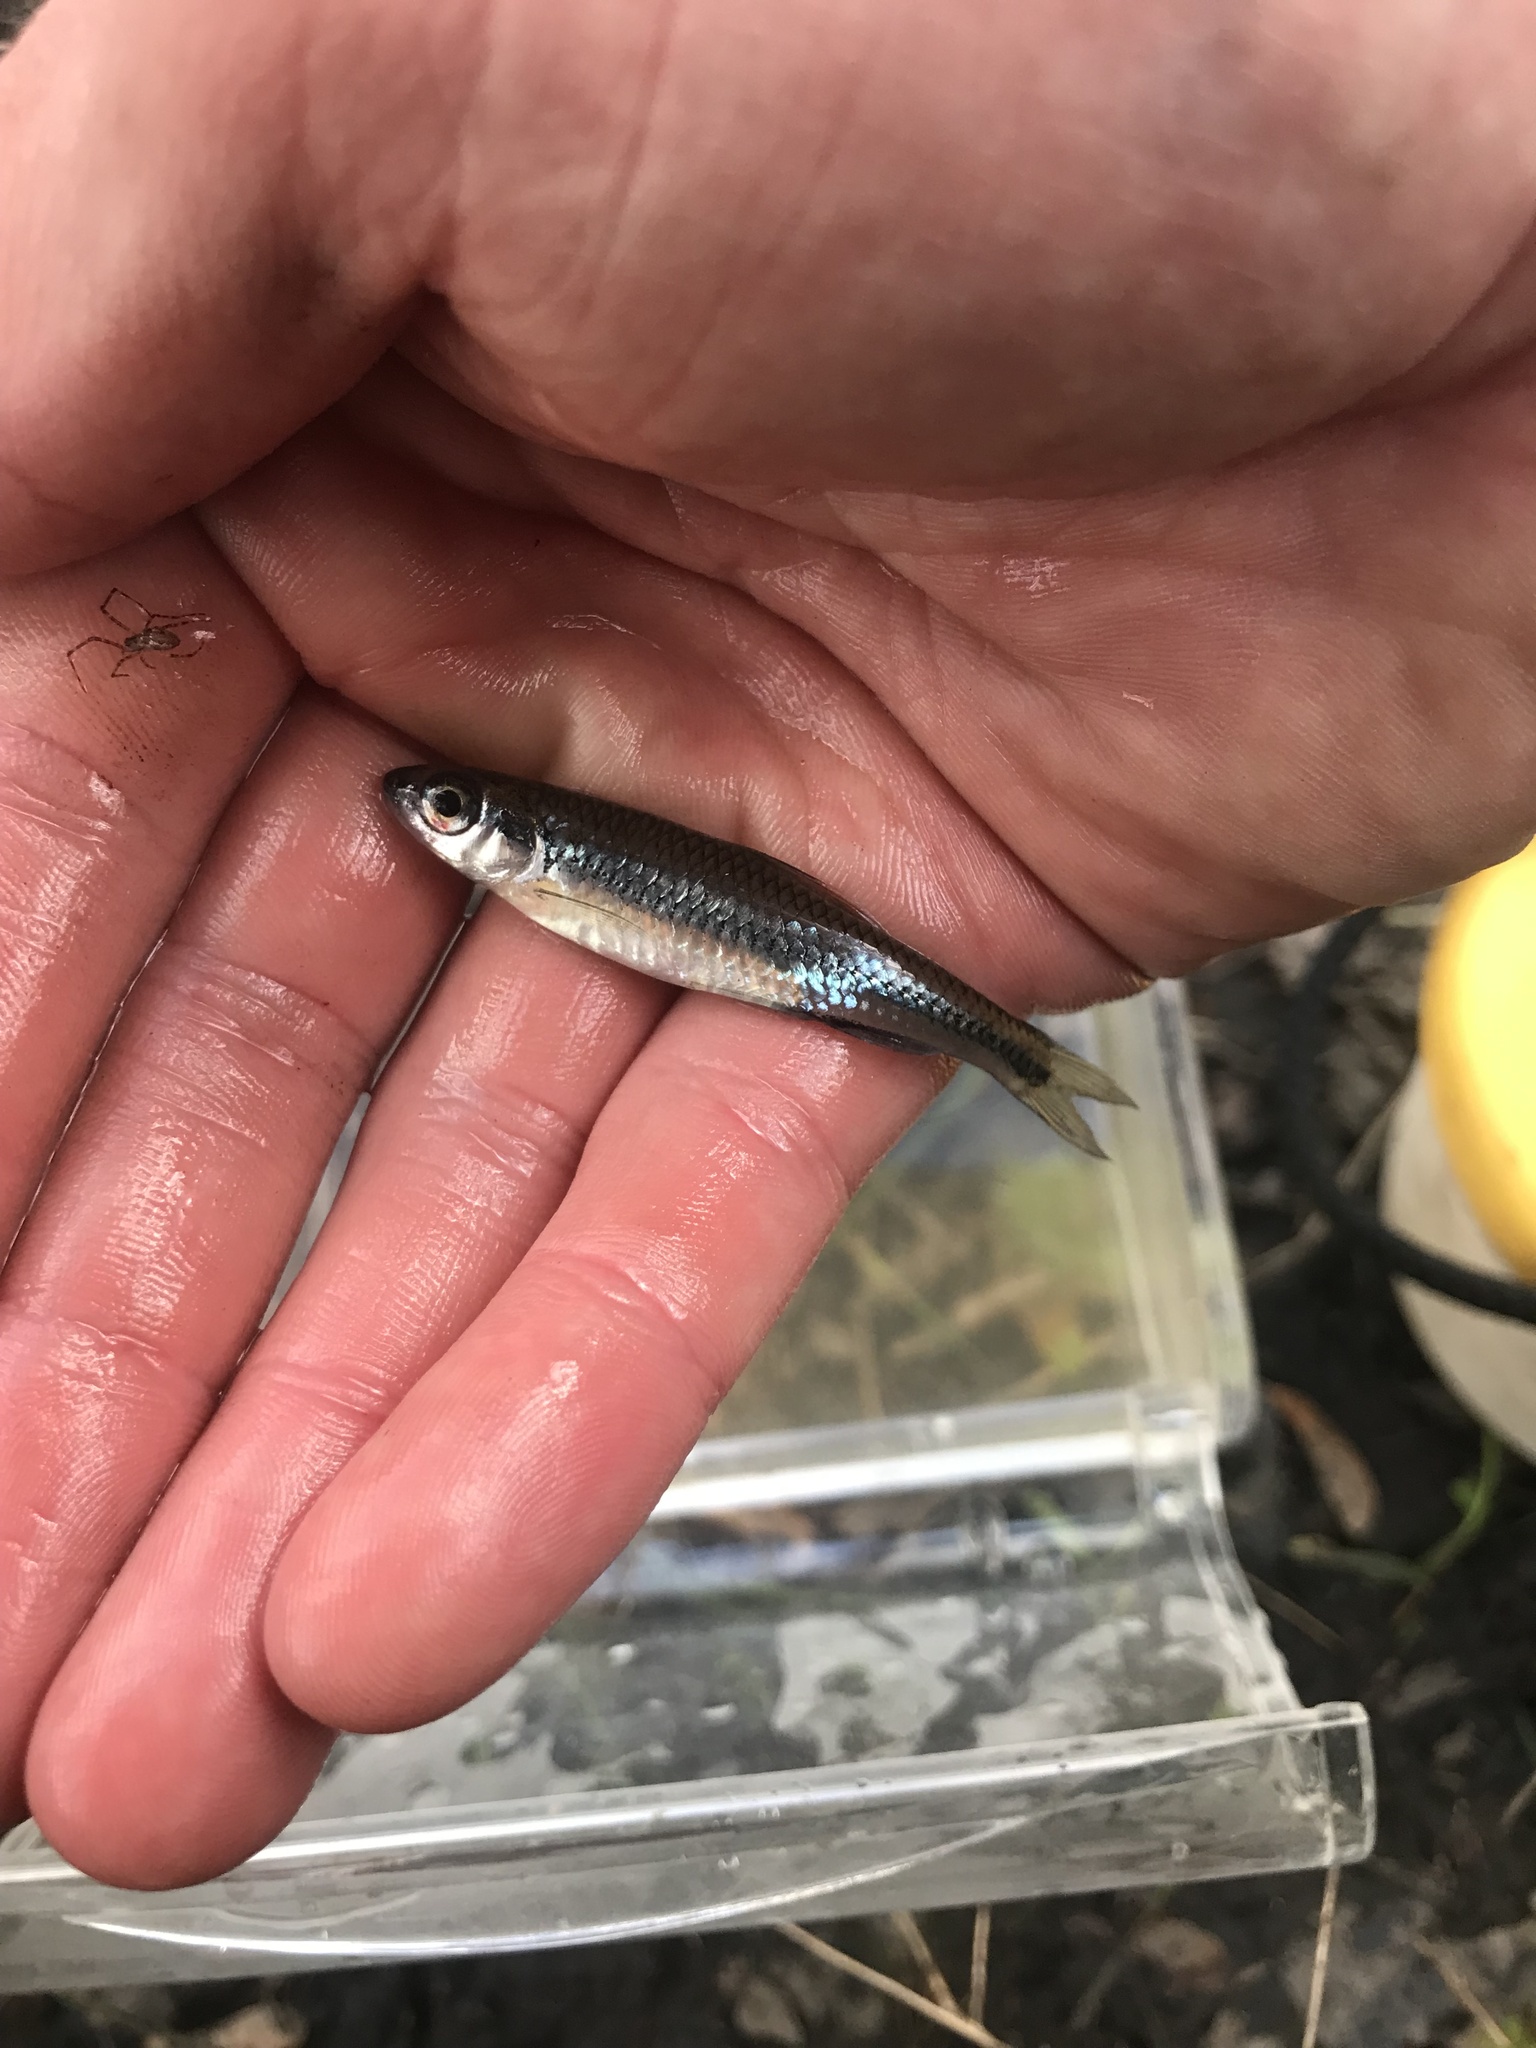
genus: Alburnops
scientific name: Alburnops
